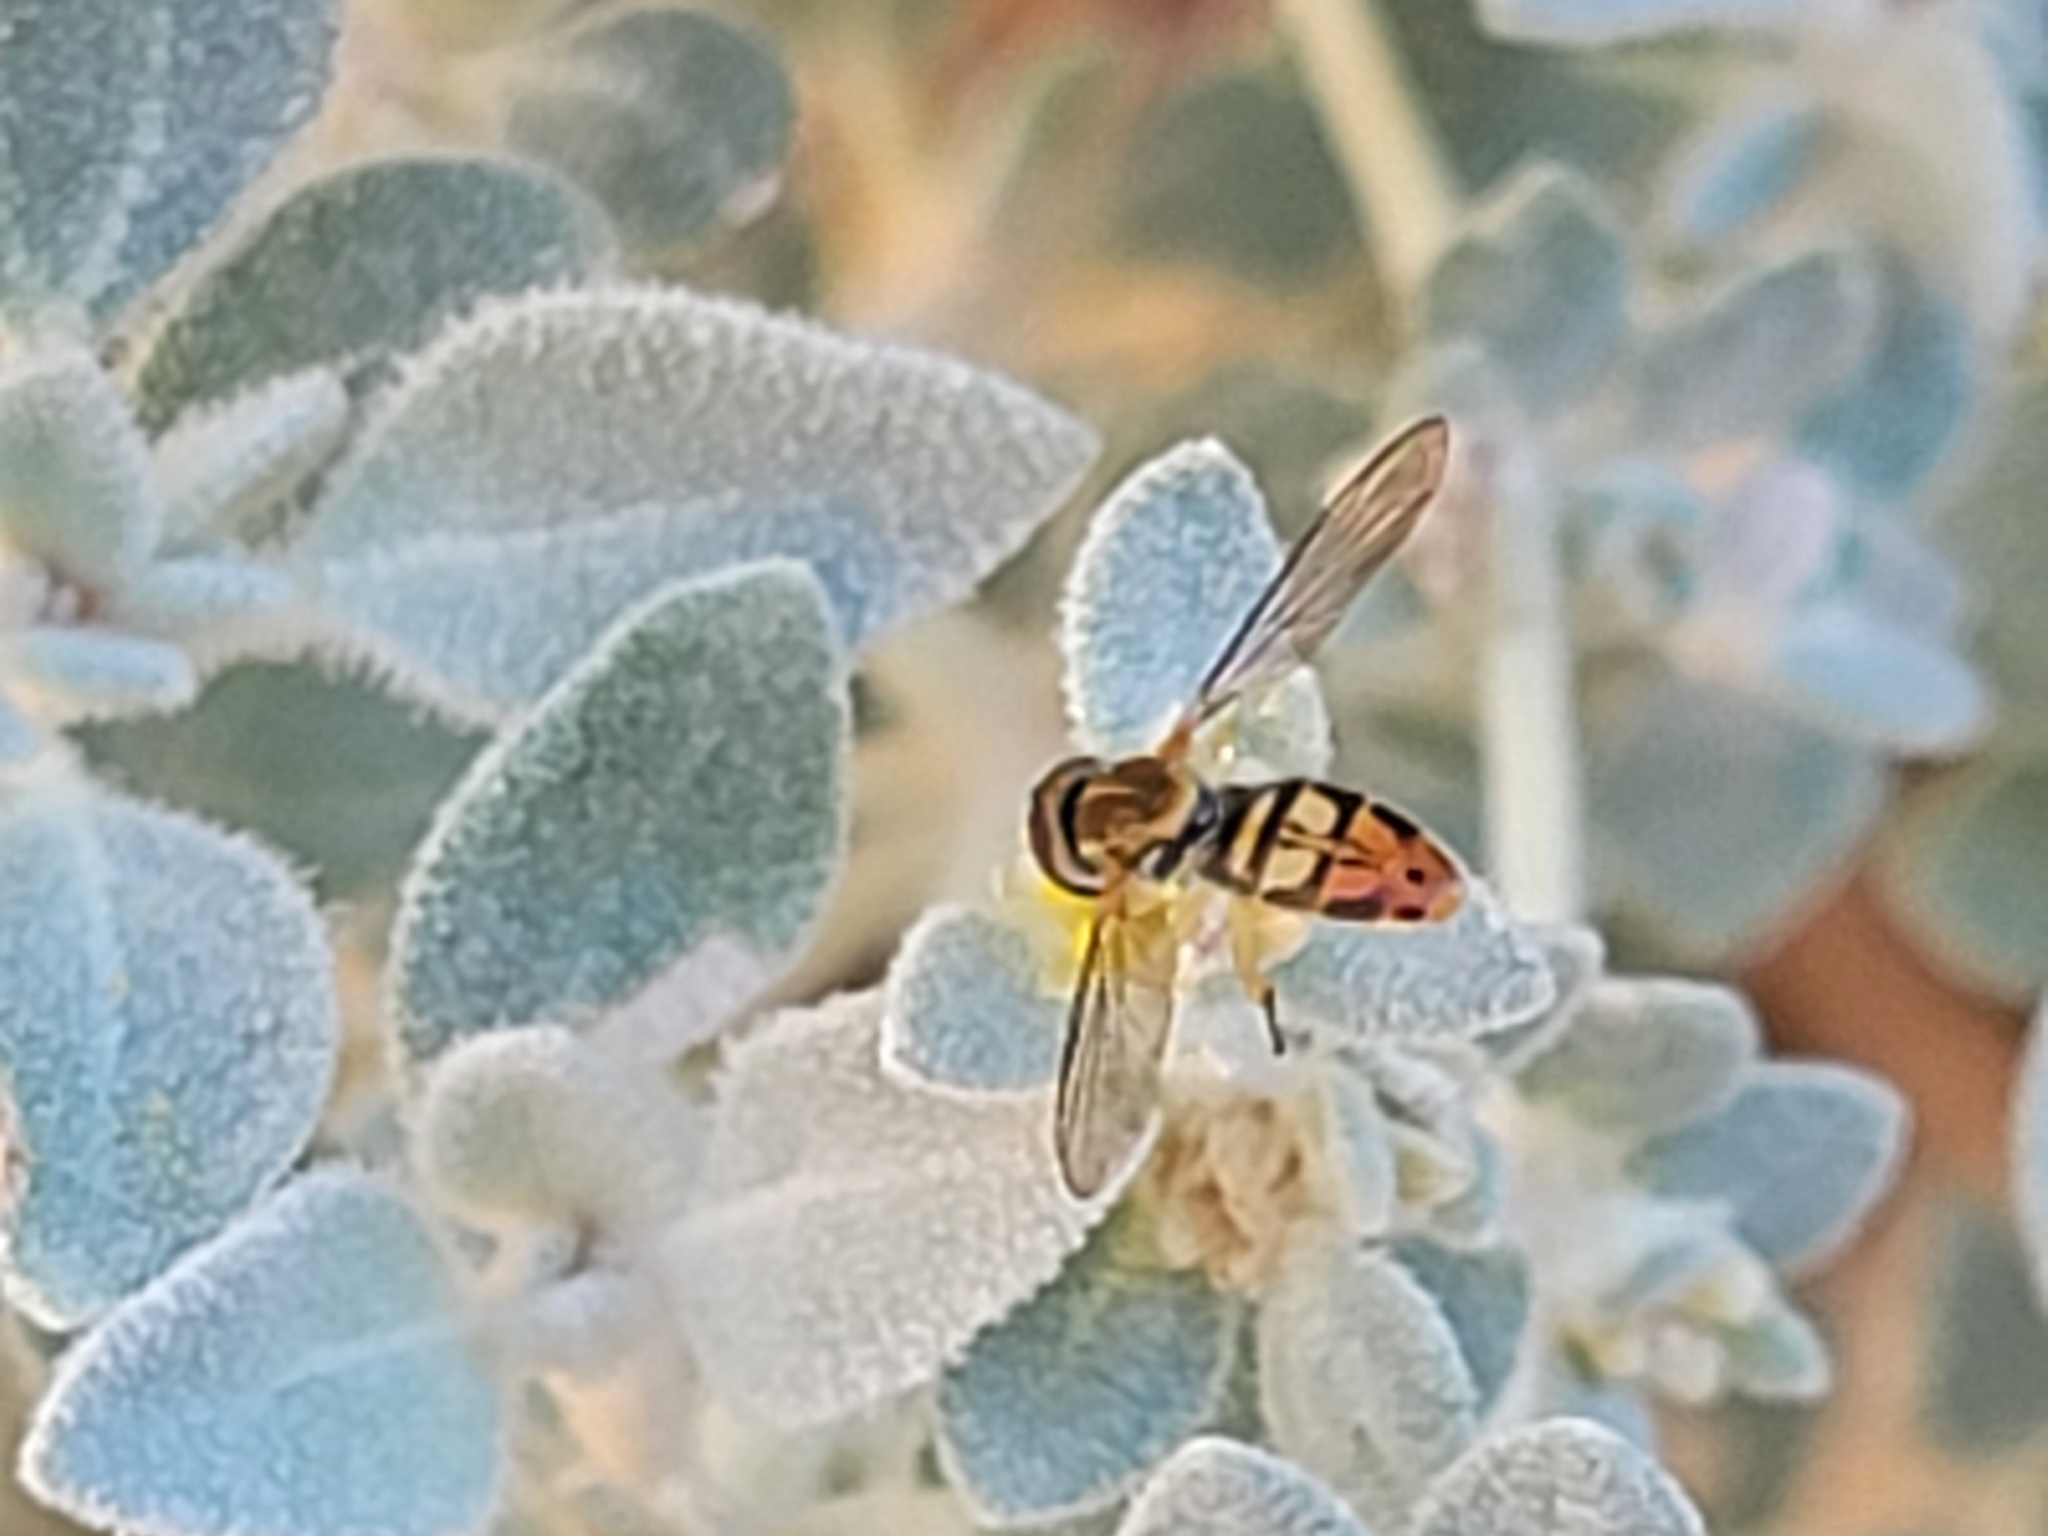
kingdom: Animalia
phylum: Arthropoda
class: Insecta
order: Diptera
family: Syrphidae
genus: Toxomerus
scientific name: Toxomerus marginatus
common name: Syrphid fly
